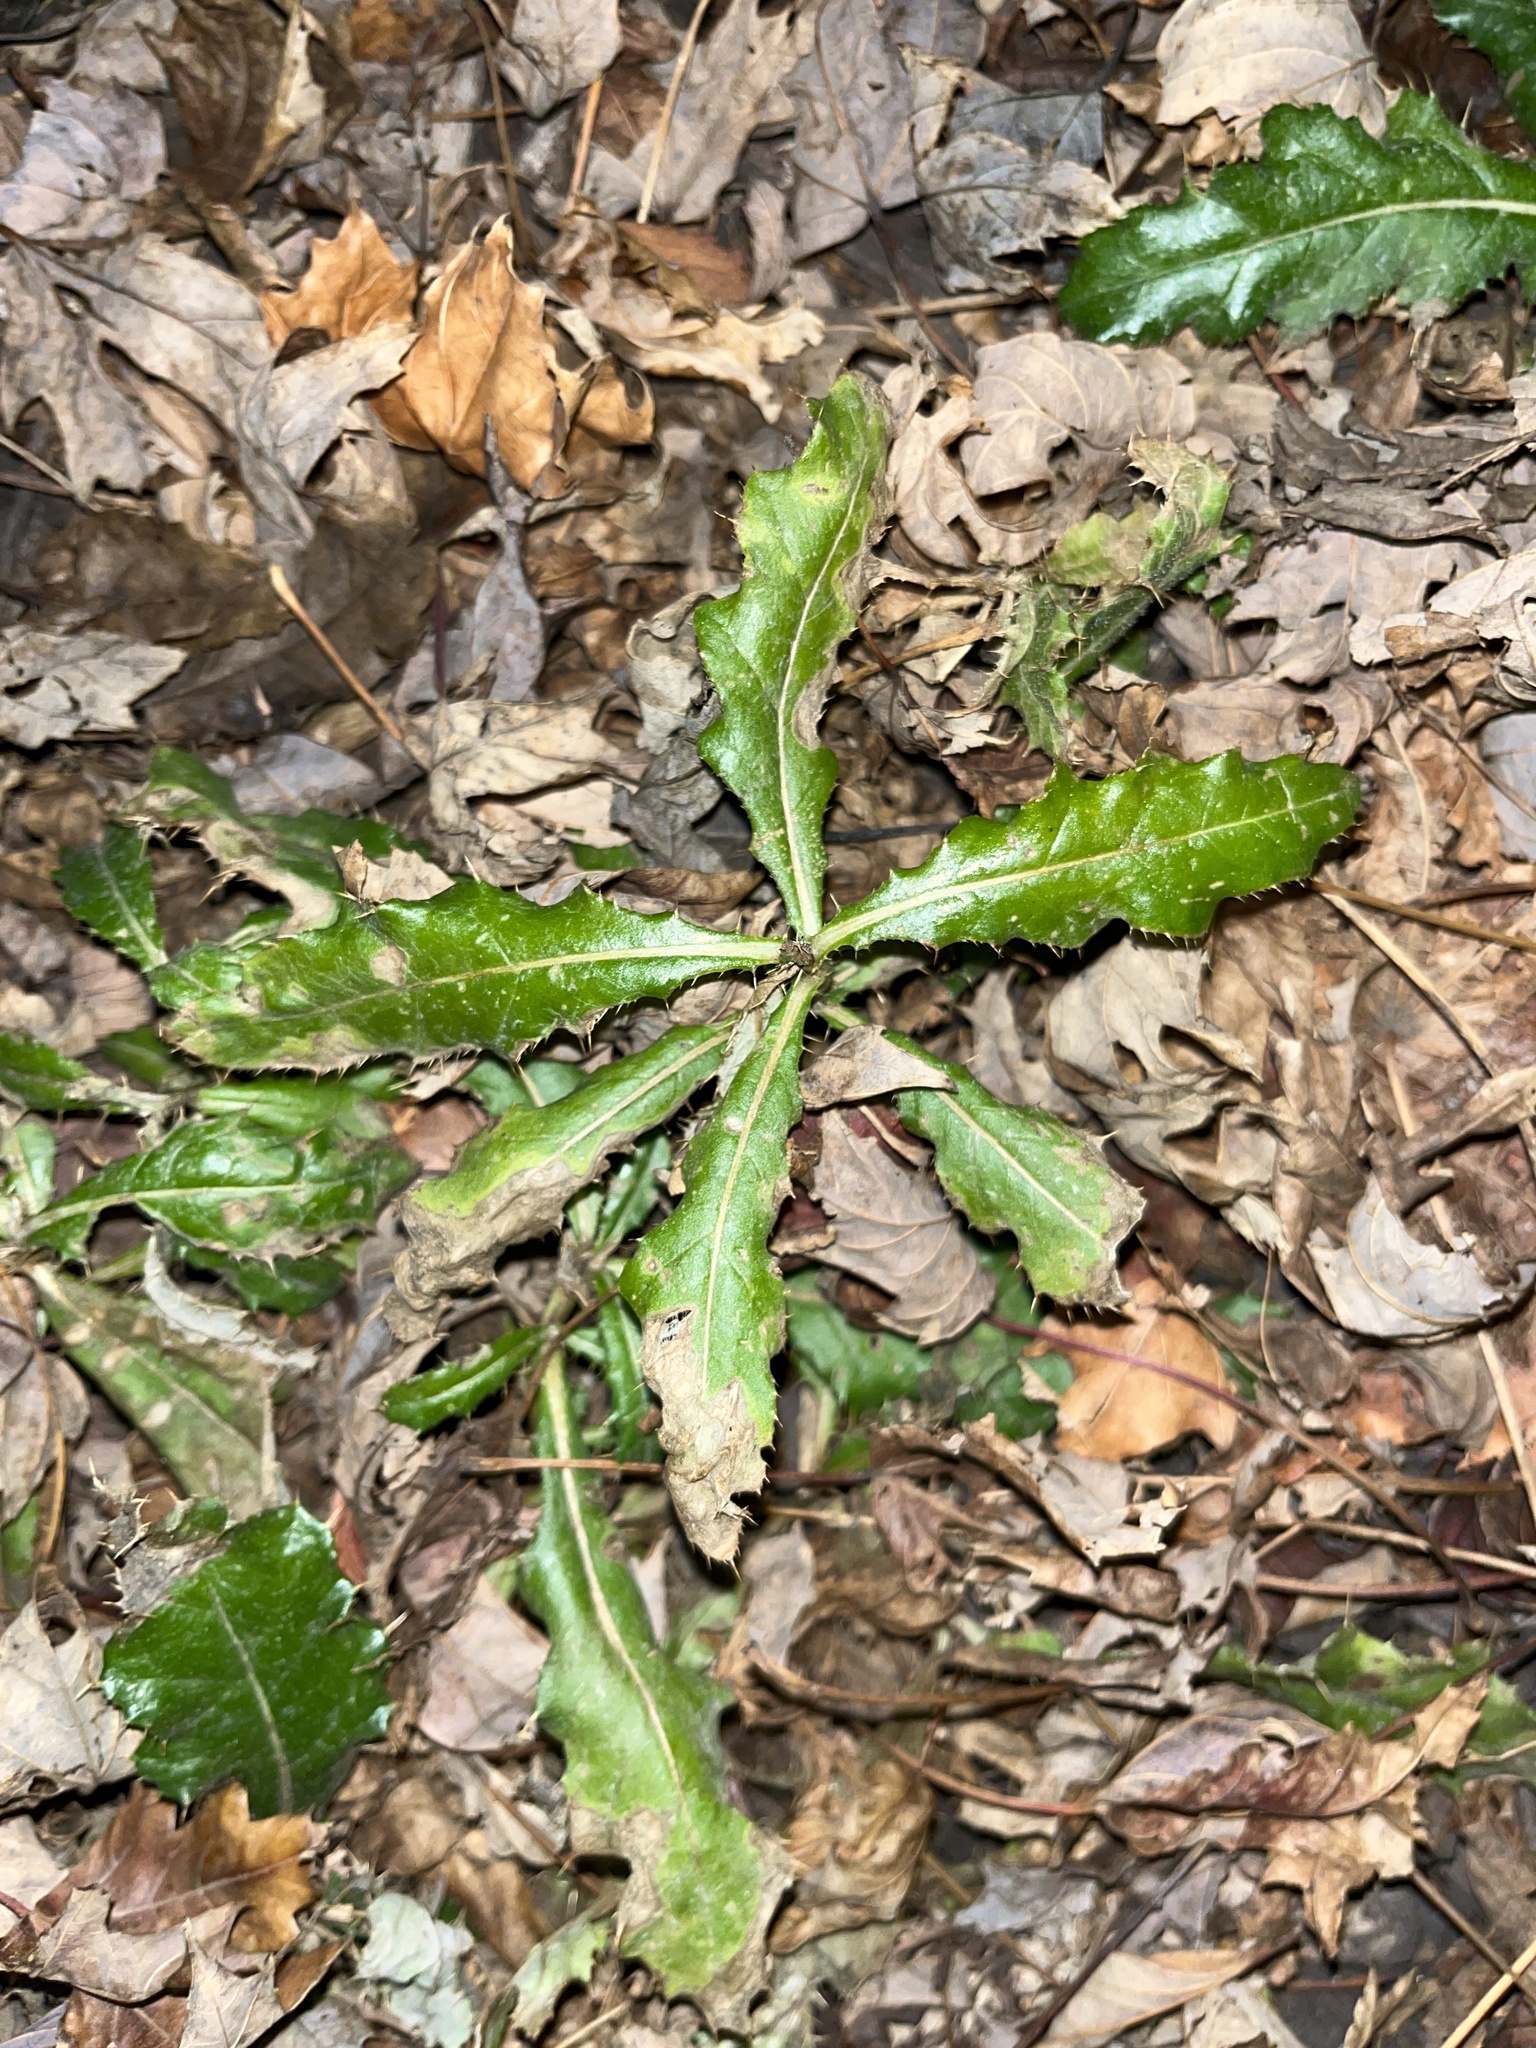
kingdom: Plantae
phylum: Tracheophyta
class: Magnoliopsida
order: Asterales
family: Asteraceae
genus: Cirsium
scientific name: Cirsium arvense
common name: Creeping thistle
